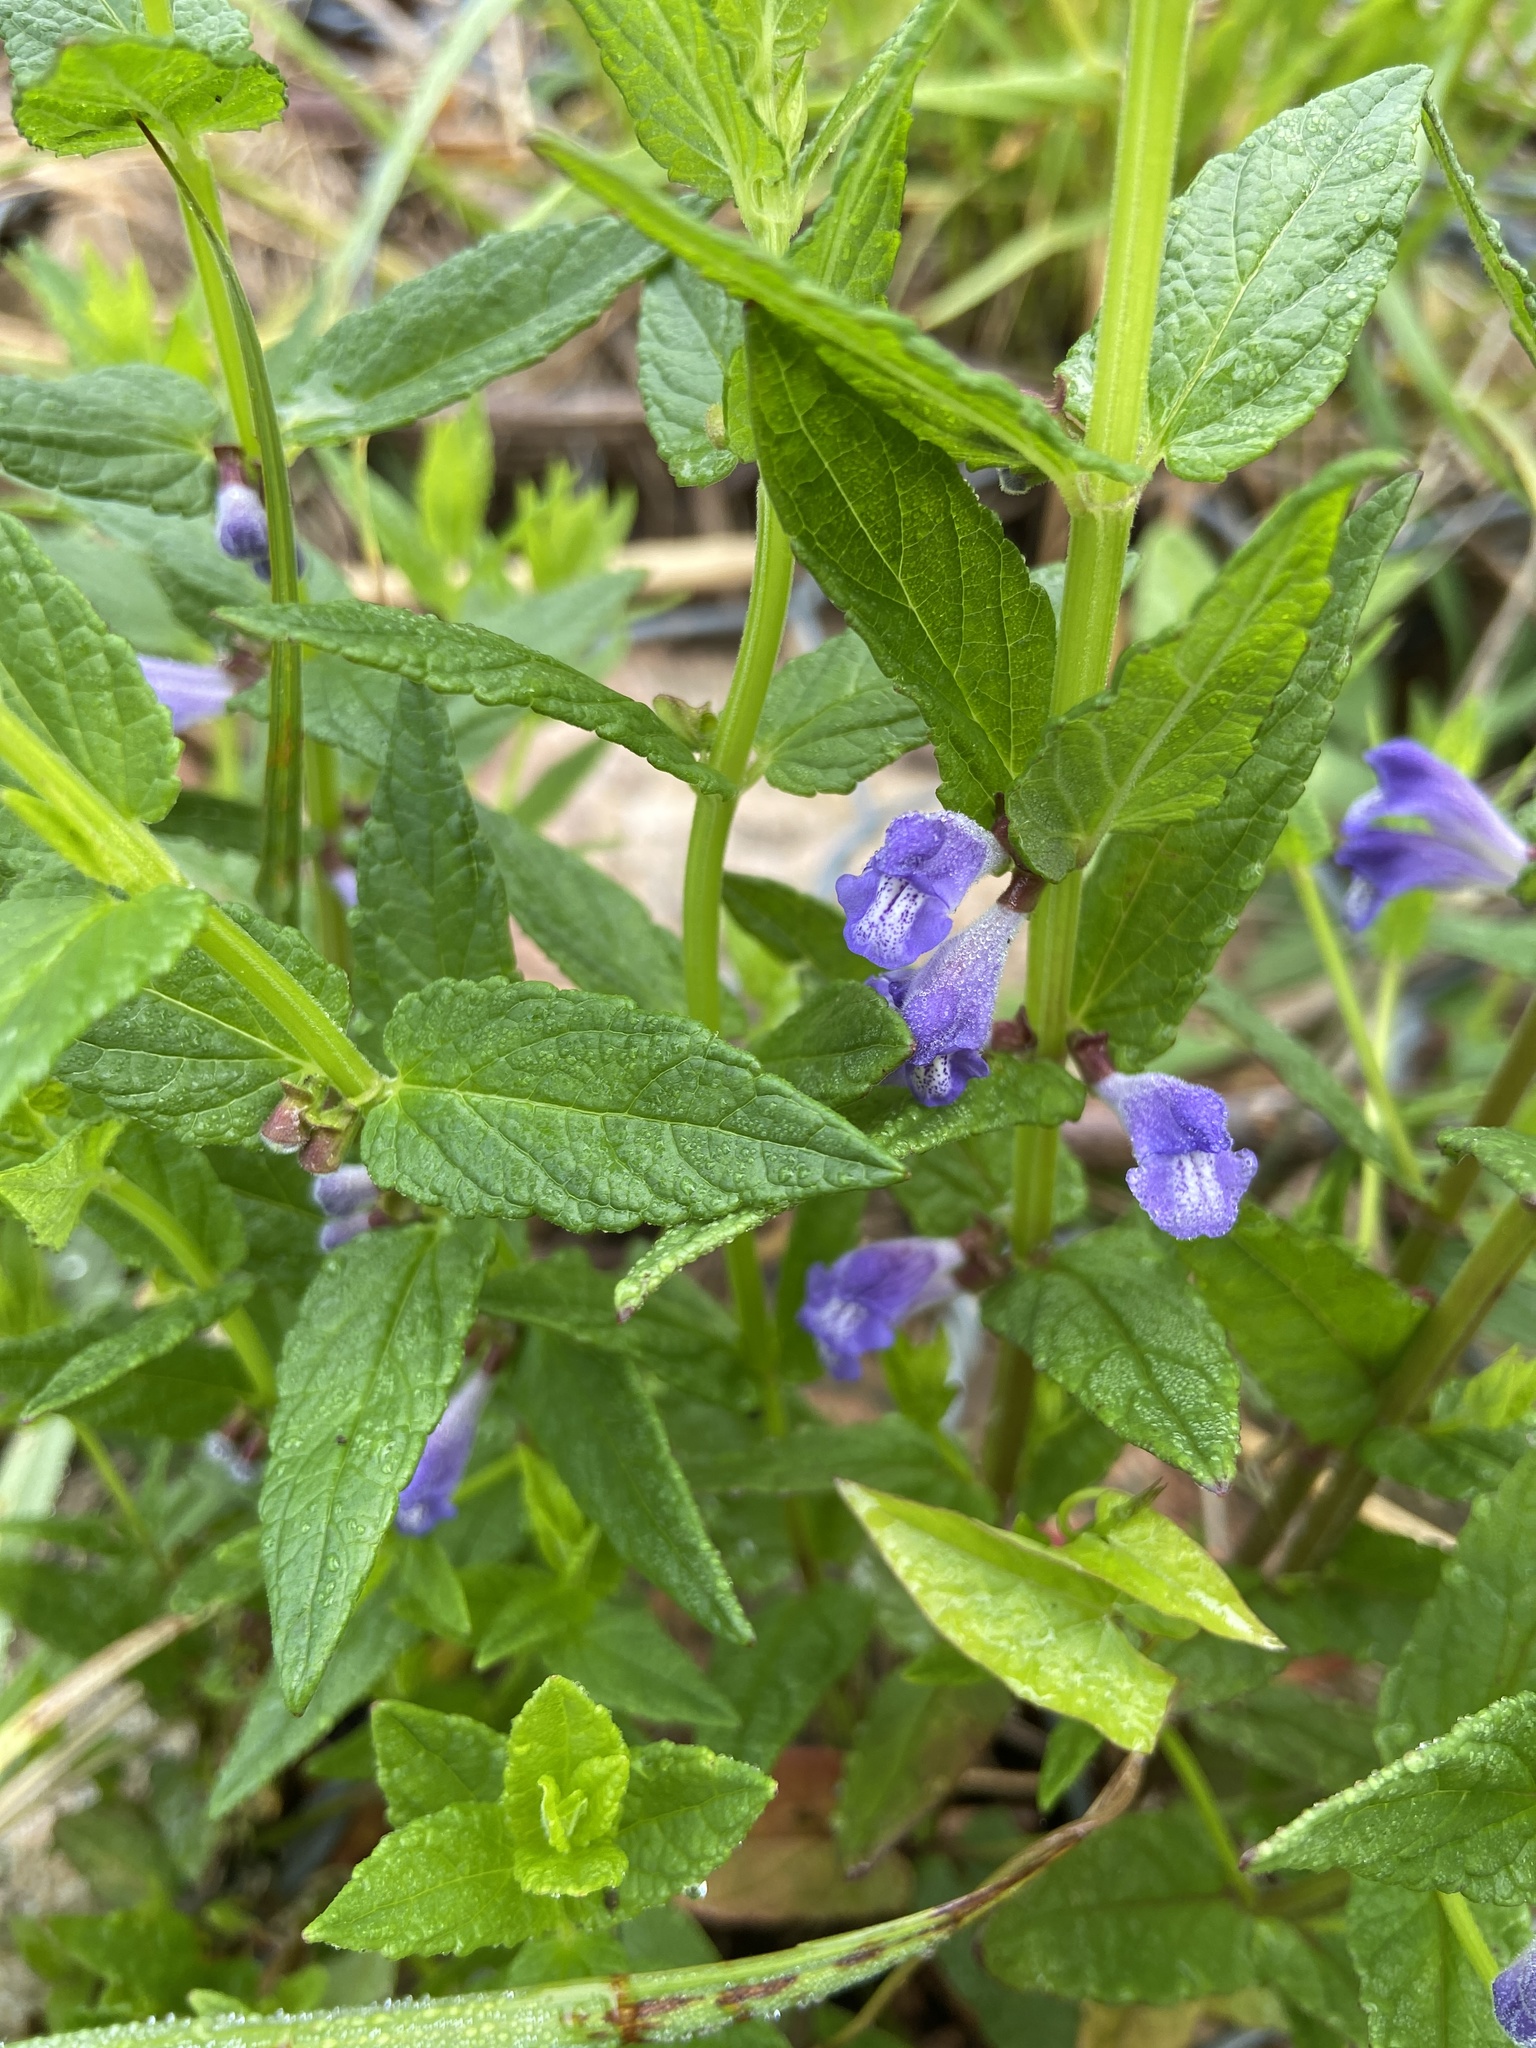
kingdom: Plantae
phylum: Tracheophyta
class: Magnoliopsida
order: Lamiales
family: Lamiaceae
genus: Scutellaria
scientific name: Scutellaria galericulata
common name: Skullcap
